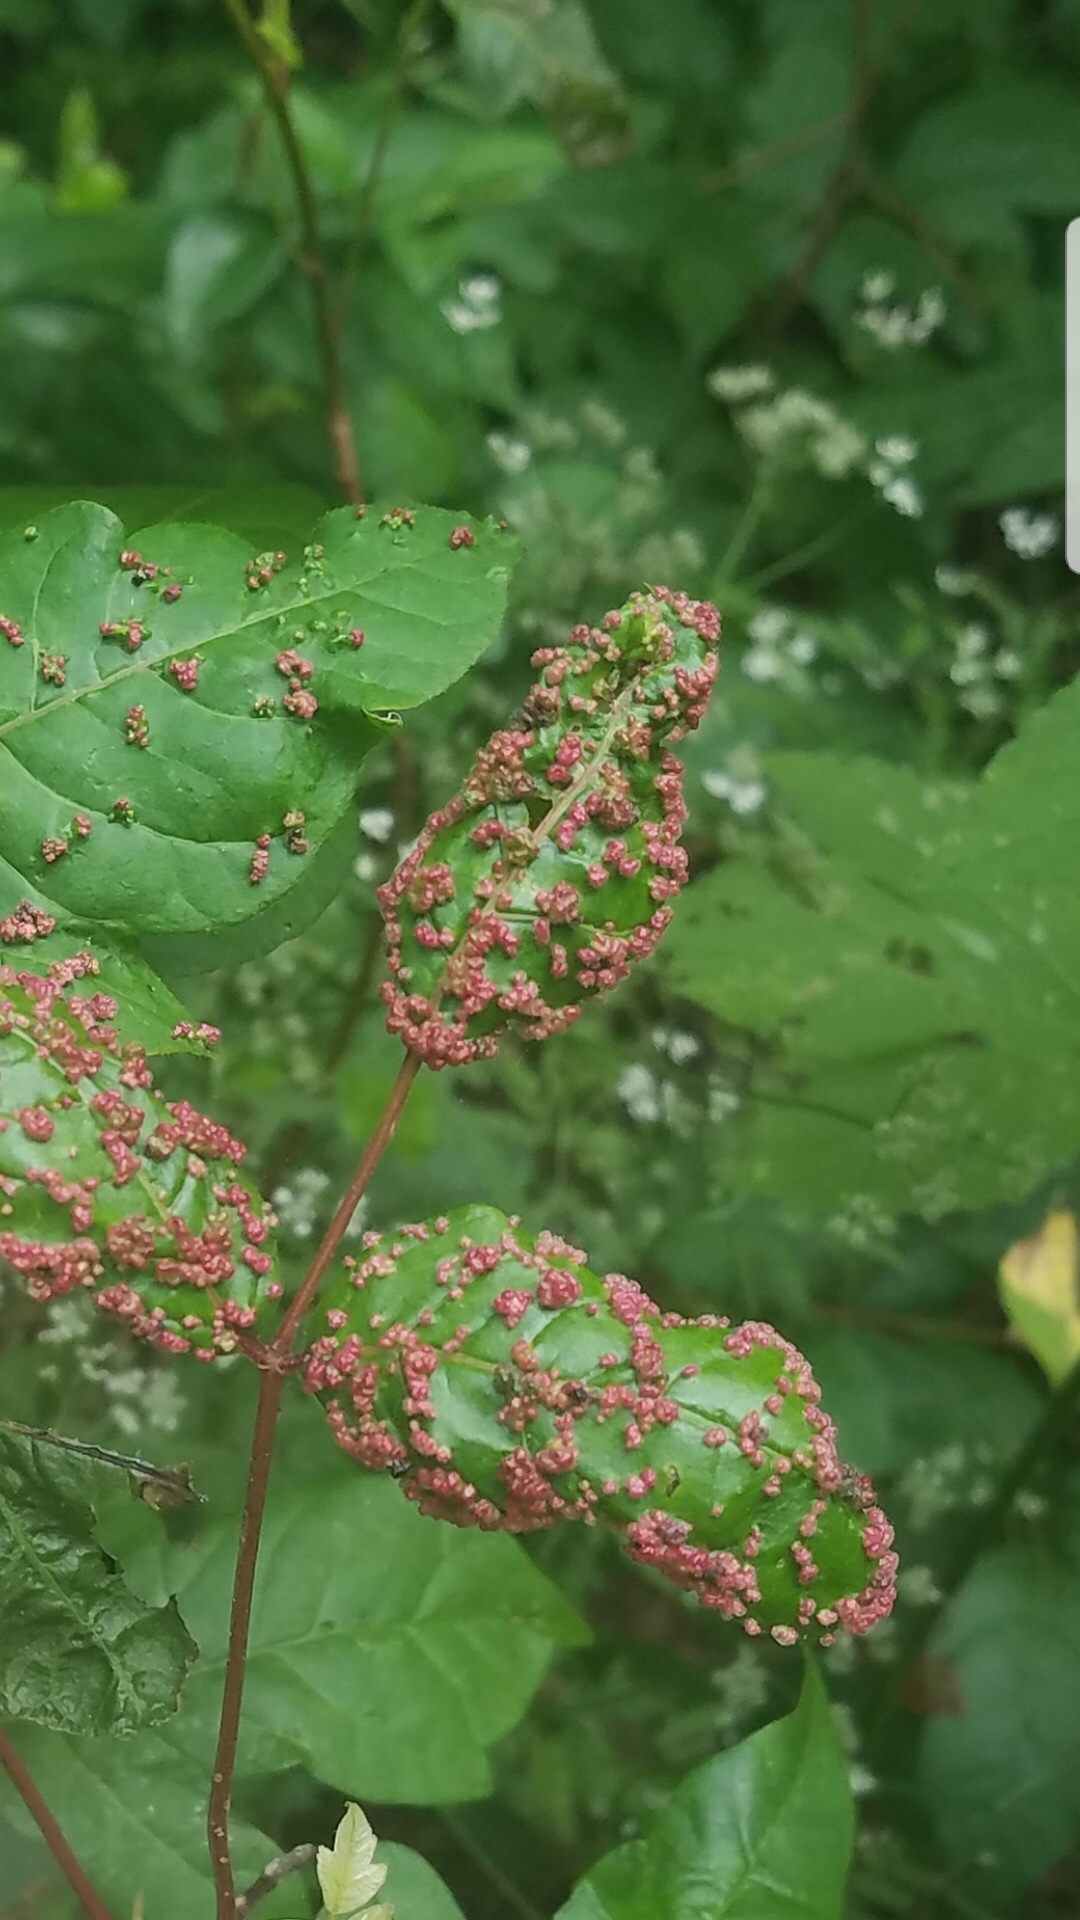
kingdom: Animalia
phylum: Arthropoda
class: Arachnida
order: Trombidiformes
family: Eriophyidae
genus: Aculops
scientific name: Aculops
